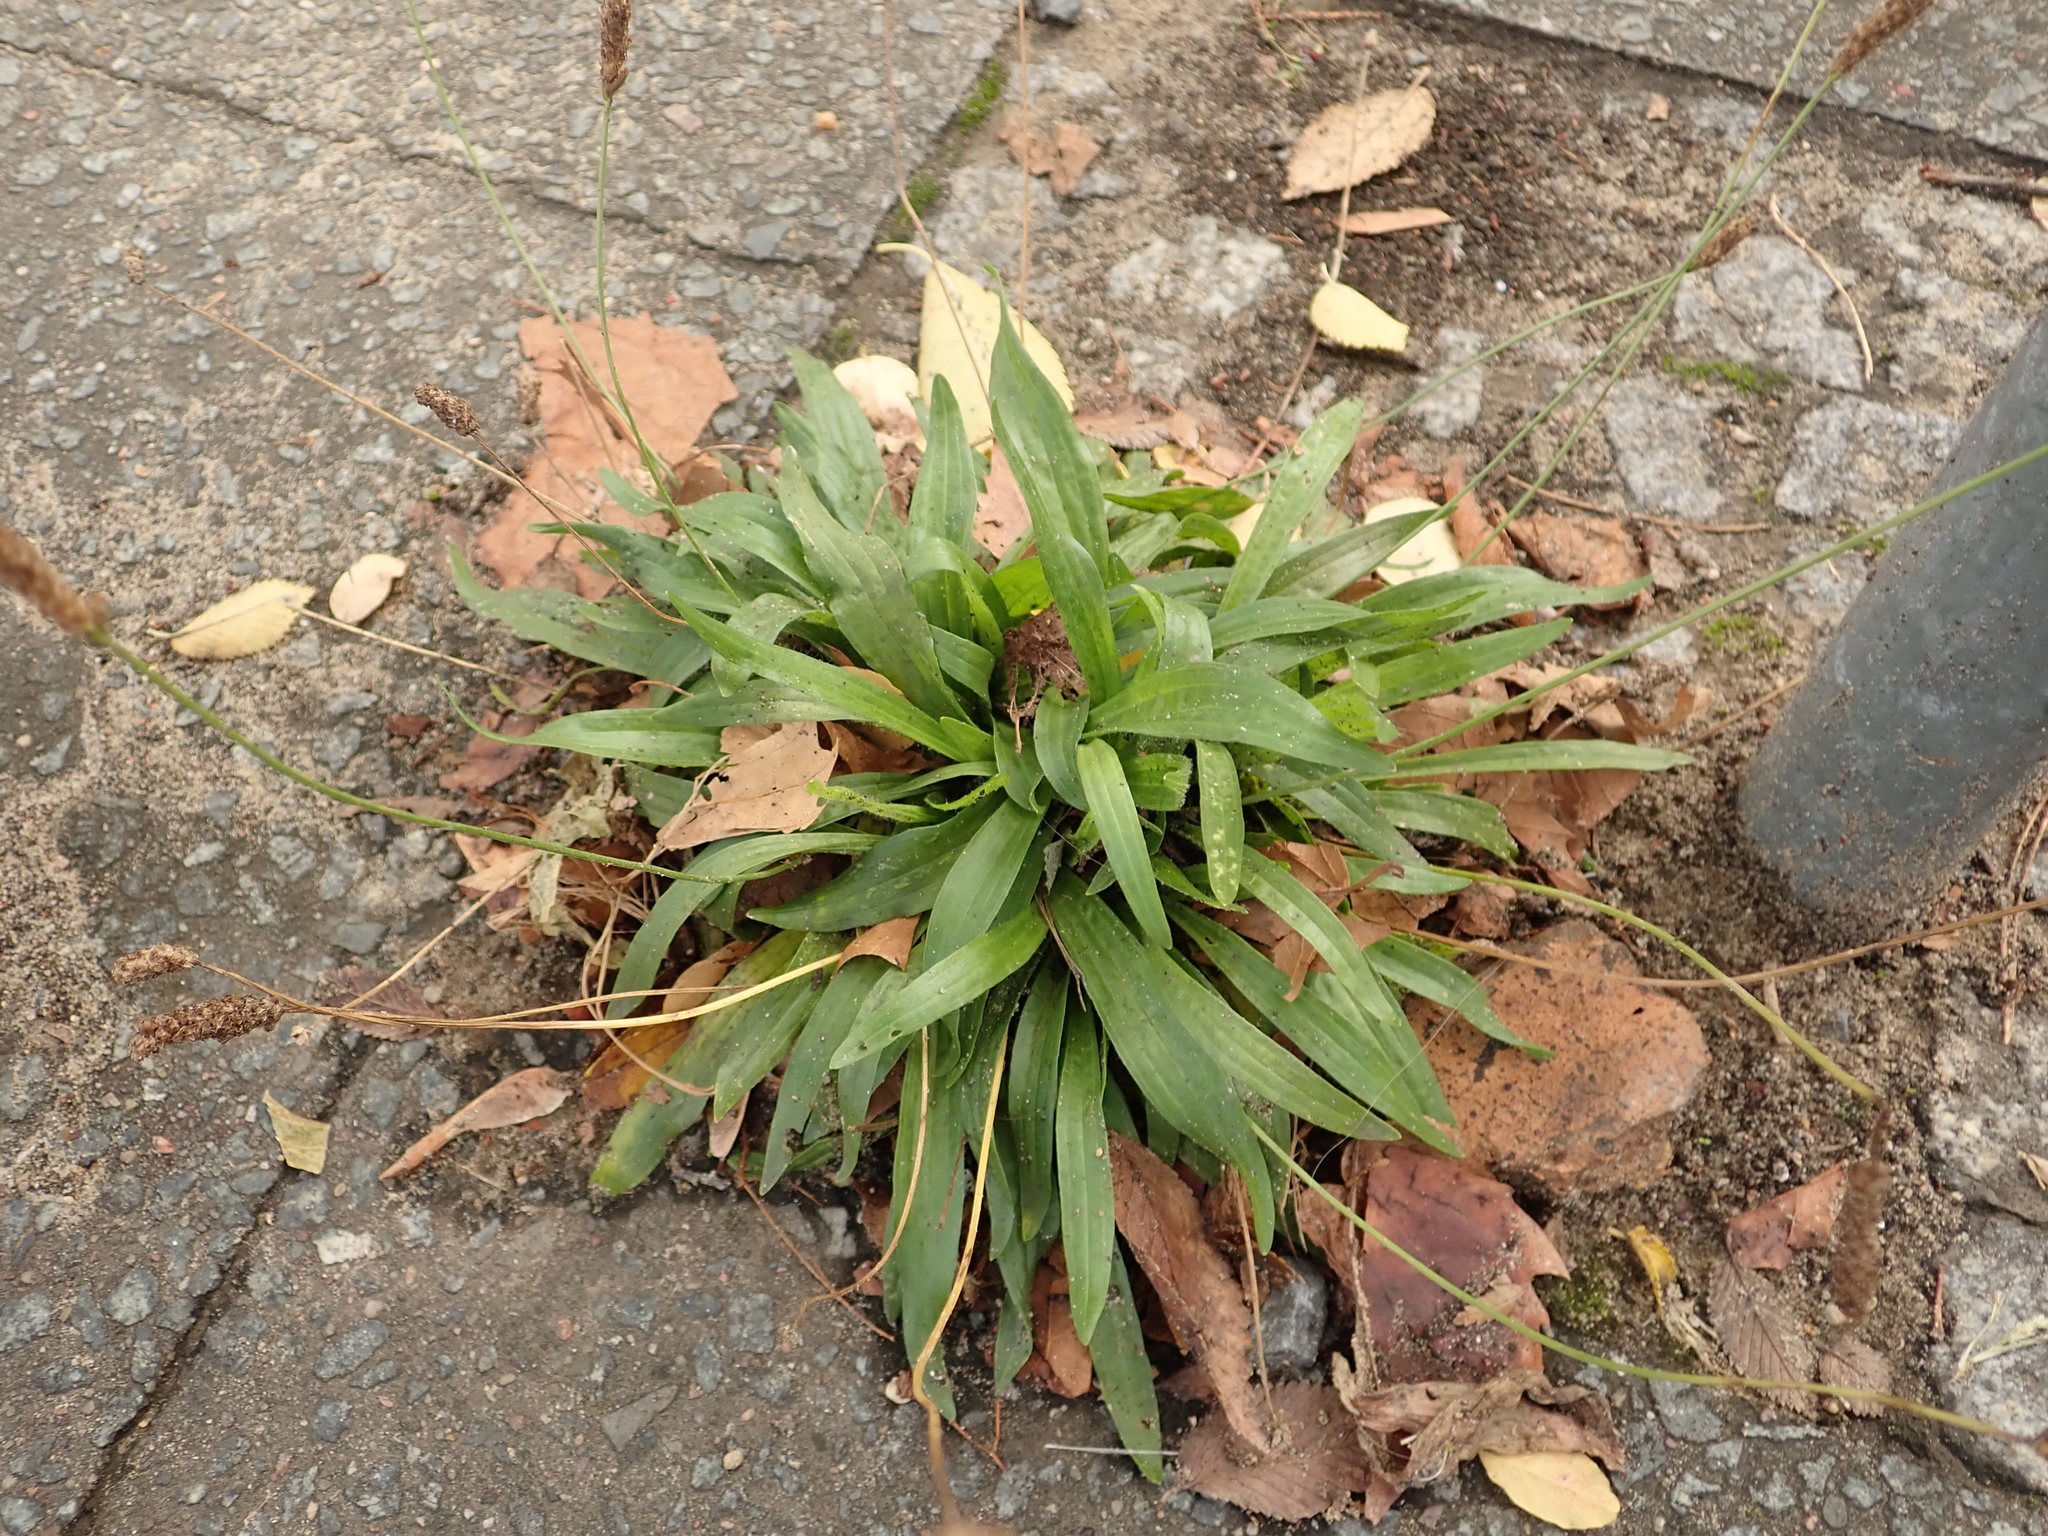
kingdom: Plantae
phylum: Tracheophyta
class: Magnoliopsida
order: Lamiales
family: Plantaginaceae
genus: Plantago
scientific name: Plantago lanceolata
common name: Ribwort plantain
